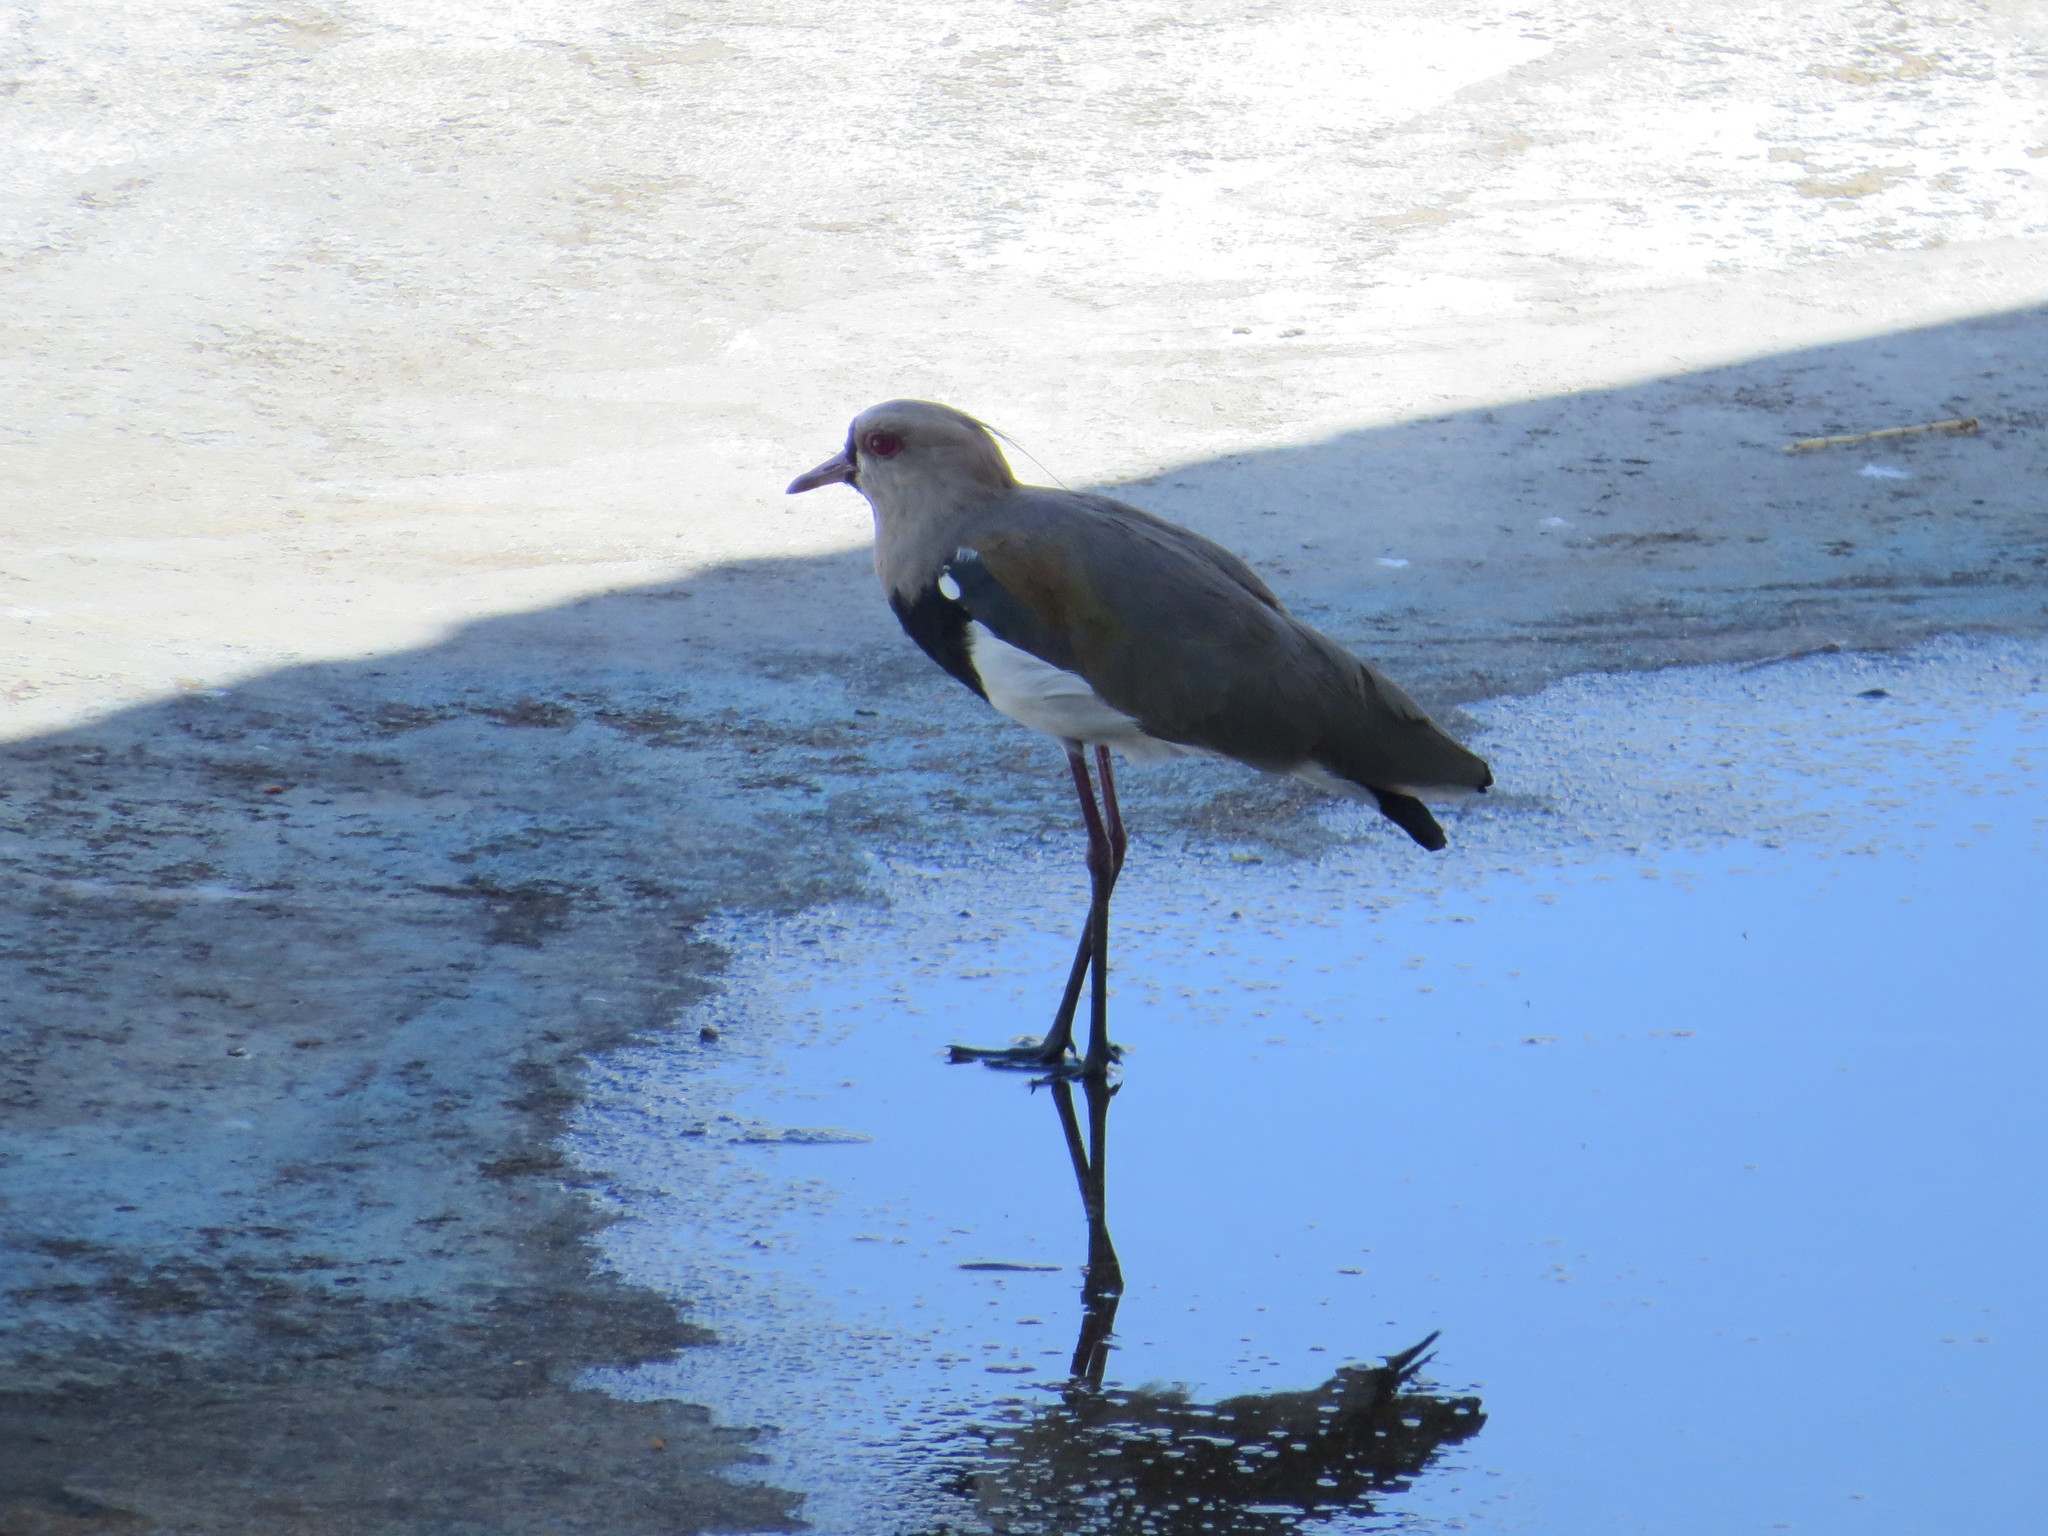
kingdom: Animalia
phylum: Chordata
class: Aves
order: Charadriiformes
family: Charadriidae
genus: Vanellus
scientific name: Vanellus chilensis
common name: Southern lapwing
